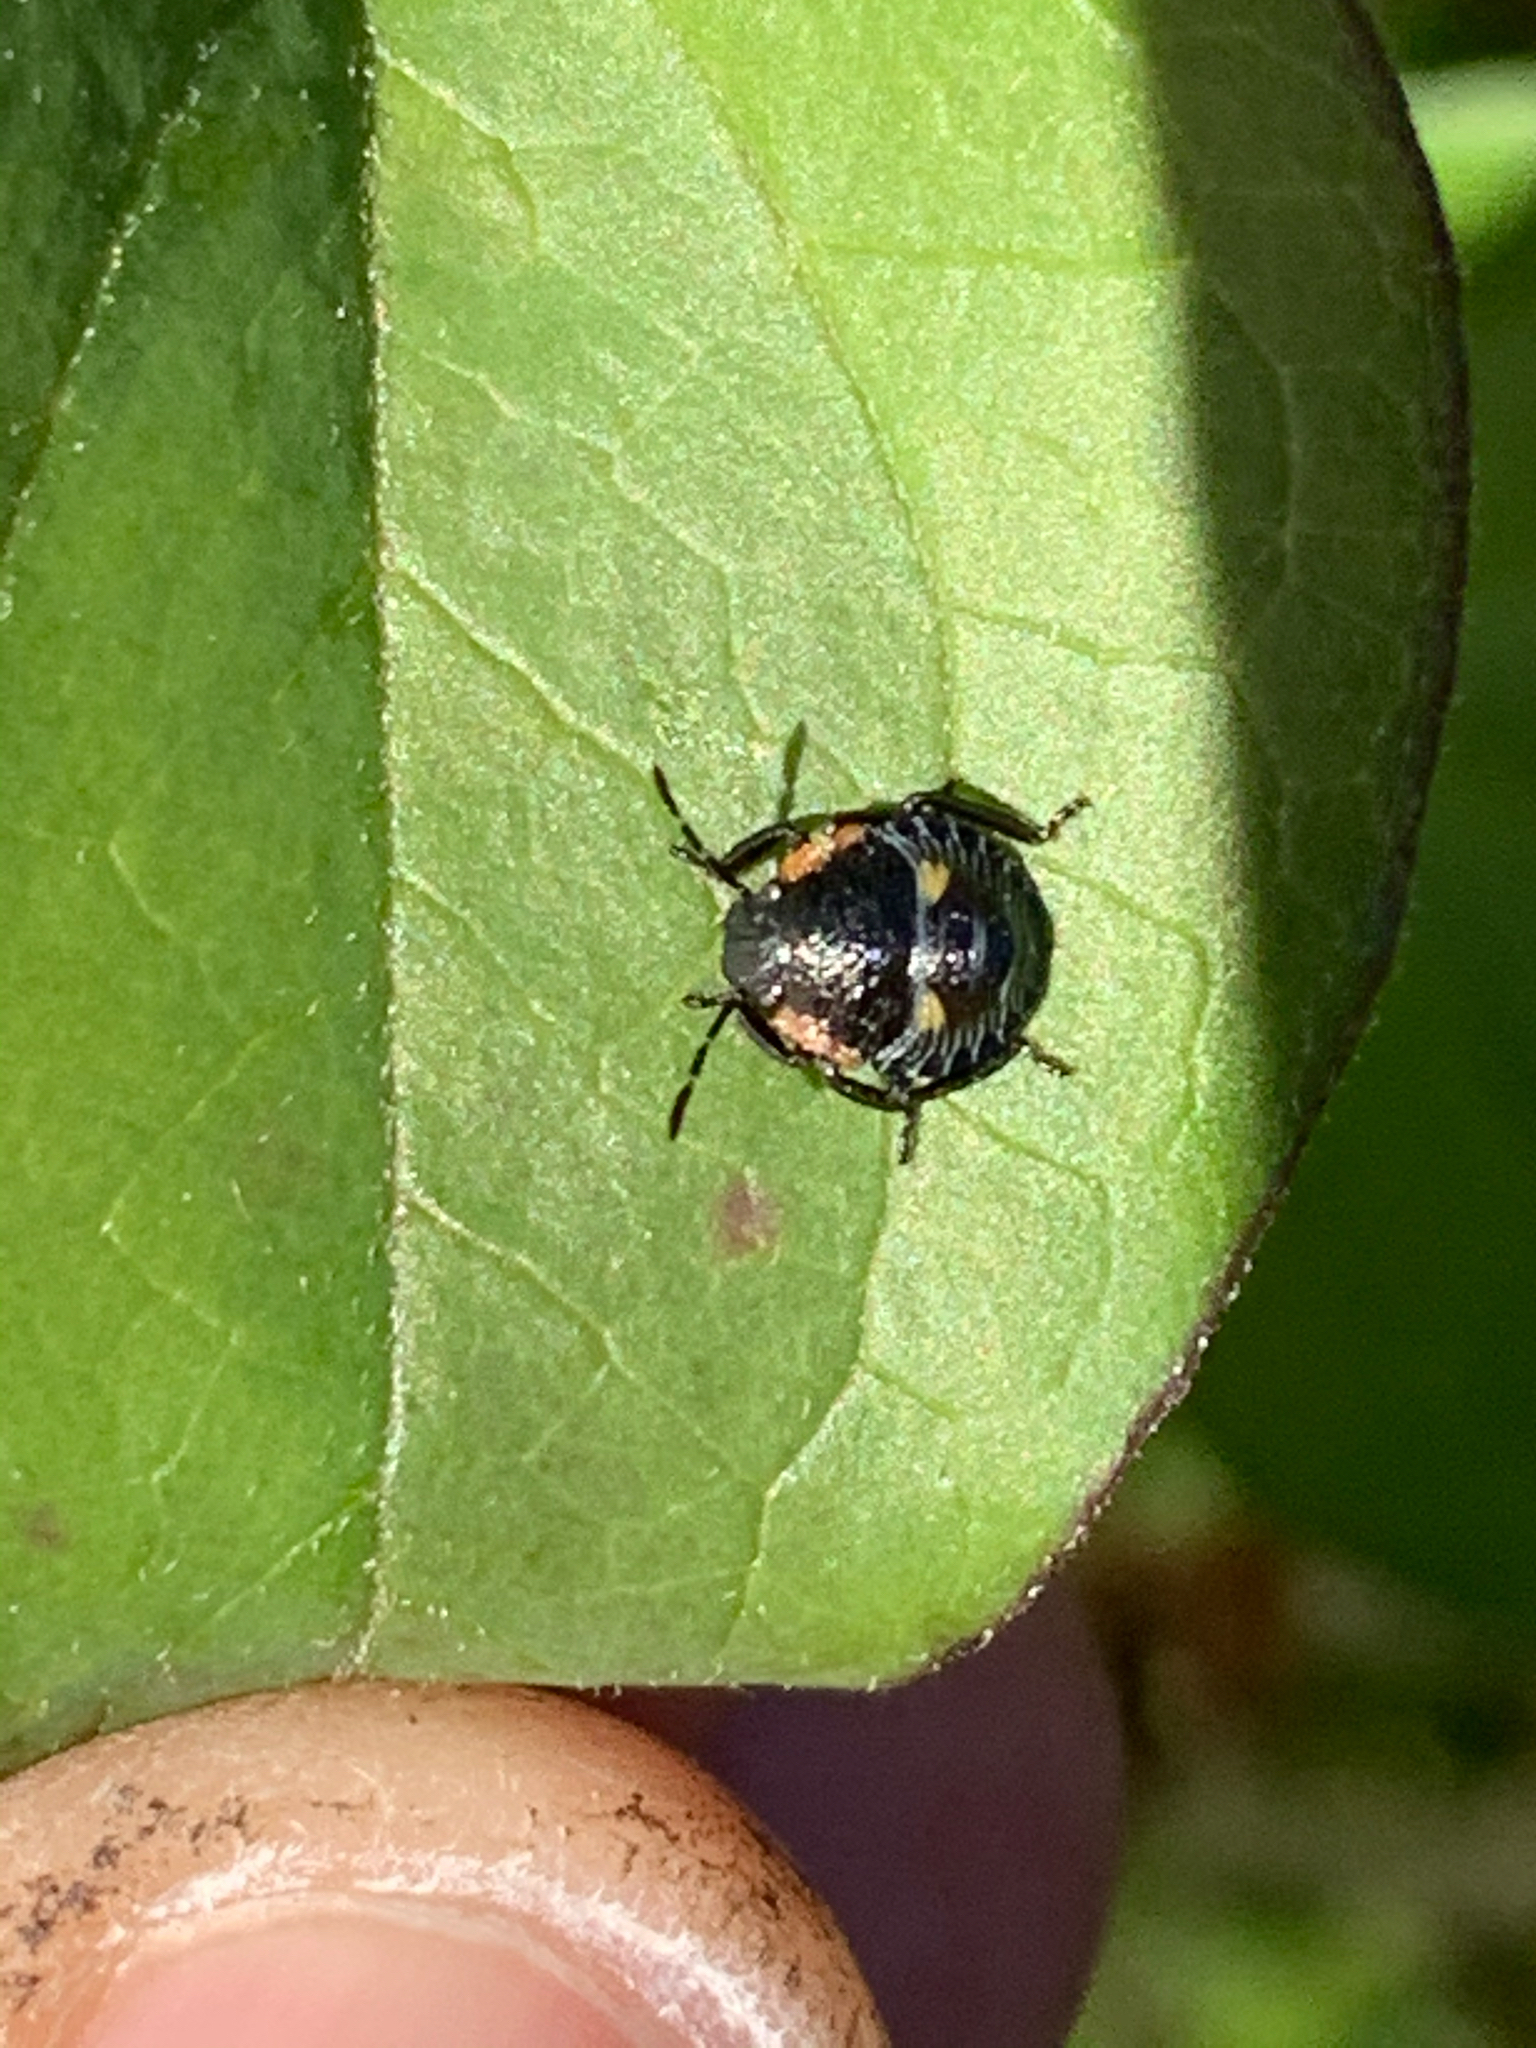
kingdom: Animalia
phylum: Arthropoda
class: Insecta
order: Hemiptera
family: Pentatomidae
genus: Chinavia
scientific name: Chinavia hilaris
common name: Green stink bug
